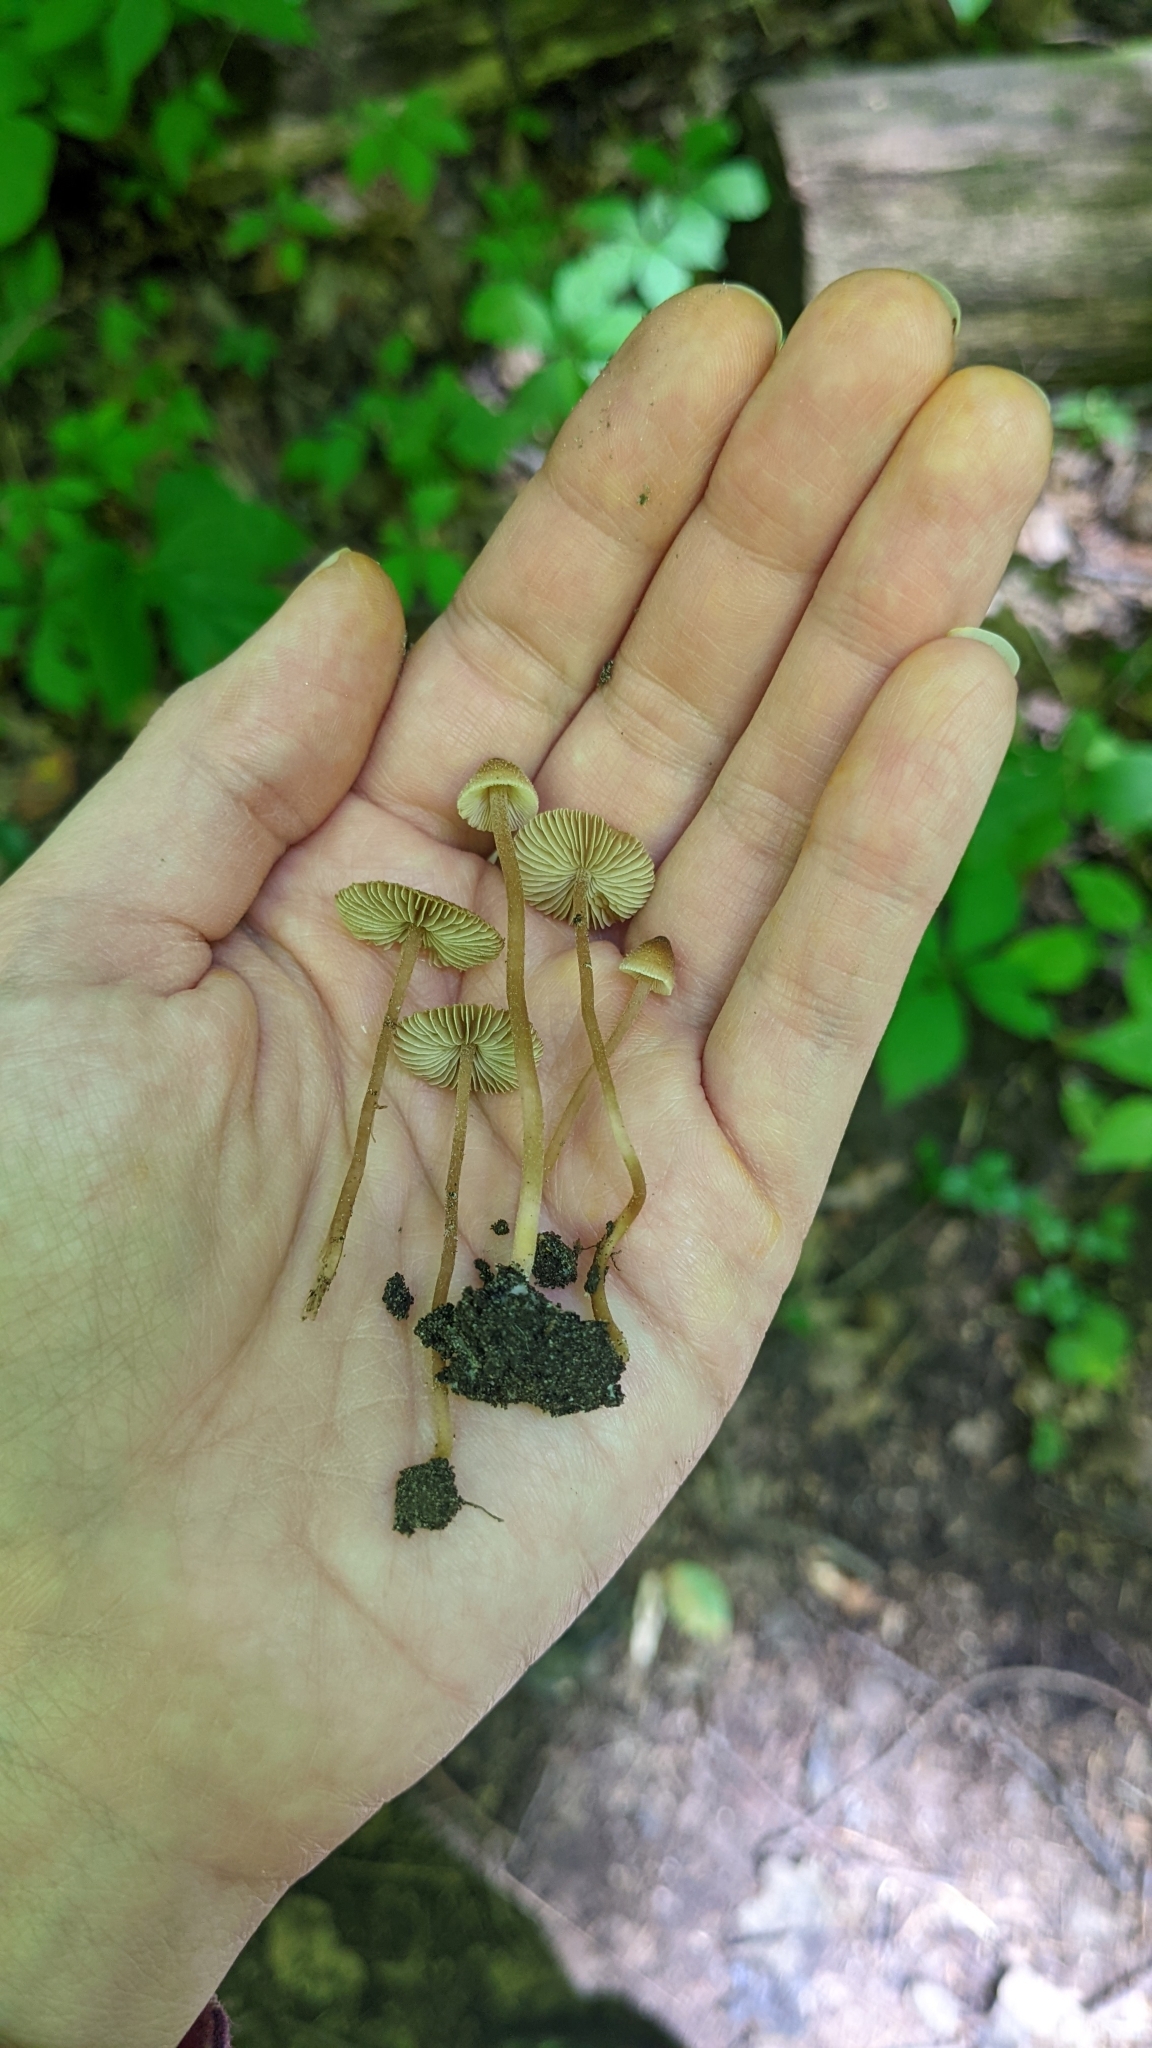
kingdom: Fungi
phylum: Basidiomycota
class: Agaricomycetes
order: Agaricales
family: Inocybaceae
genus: Inocybe
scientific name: Inocybe subfulva
